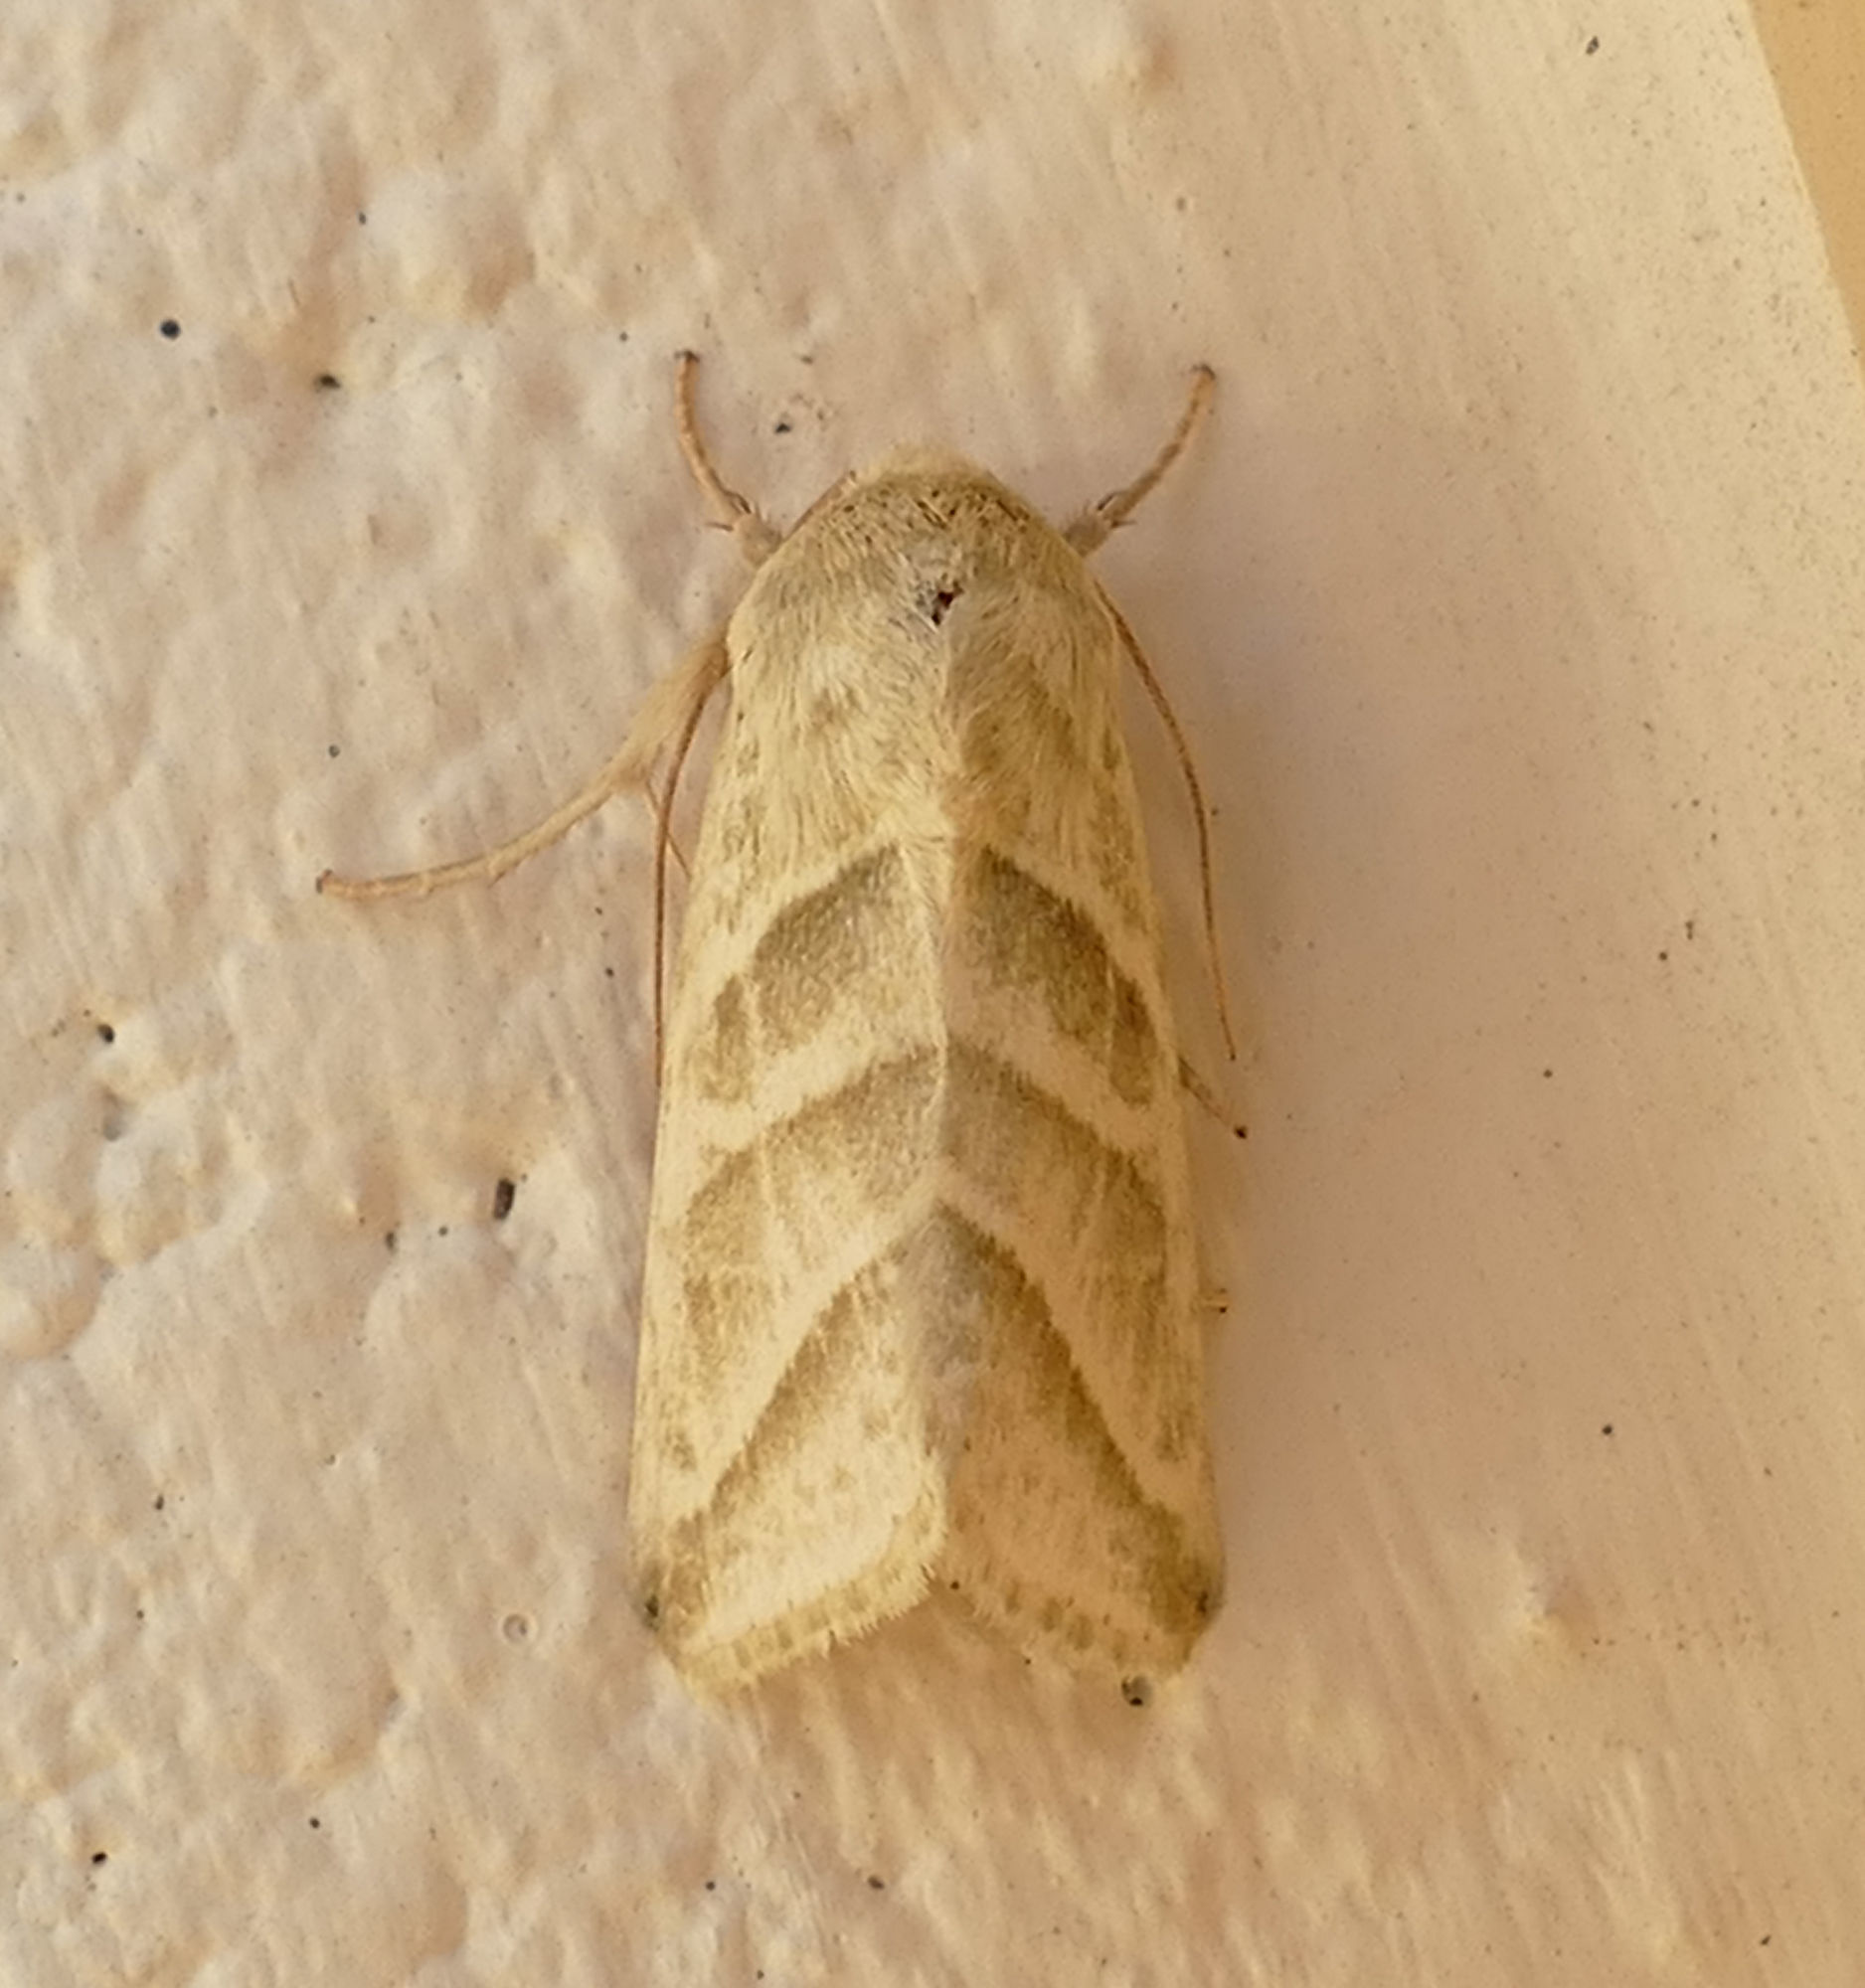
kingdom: Animalia
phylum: Arthropoda
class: Insecta
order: Lepidoptera
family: Noctuidae
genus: Chloridea
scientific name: Chloridea subflexa
